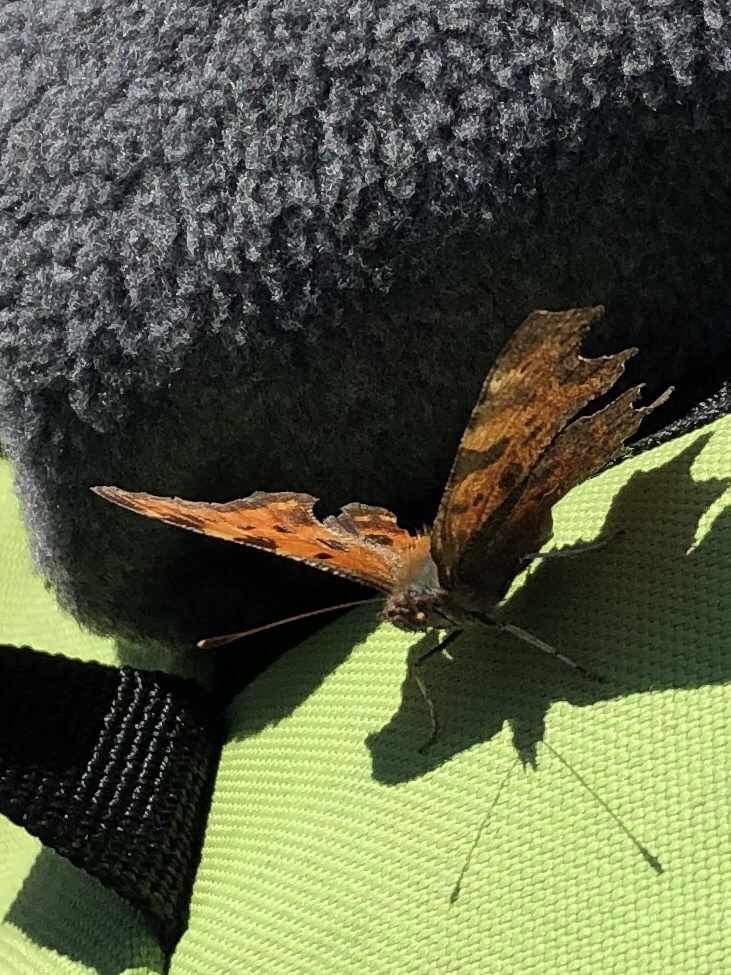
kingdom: Animalia
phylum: Arthropoda
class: Insecta
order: Lepidoptera
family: Nymphalidae
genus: Polygonia
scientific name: Polygonia c-album
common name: Comma
